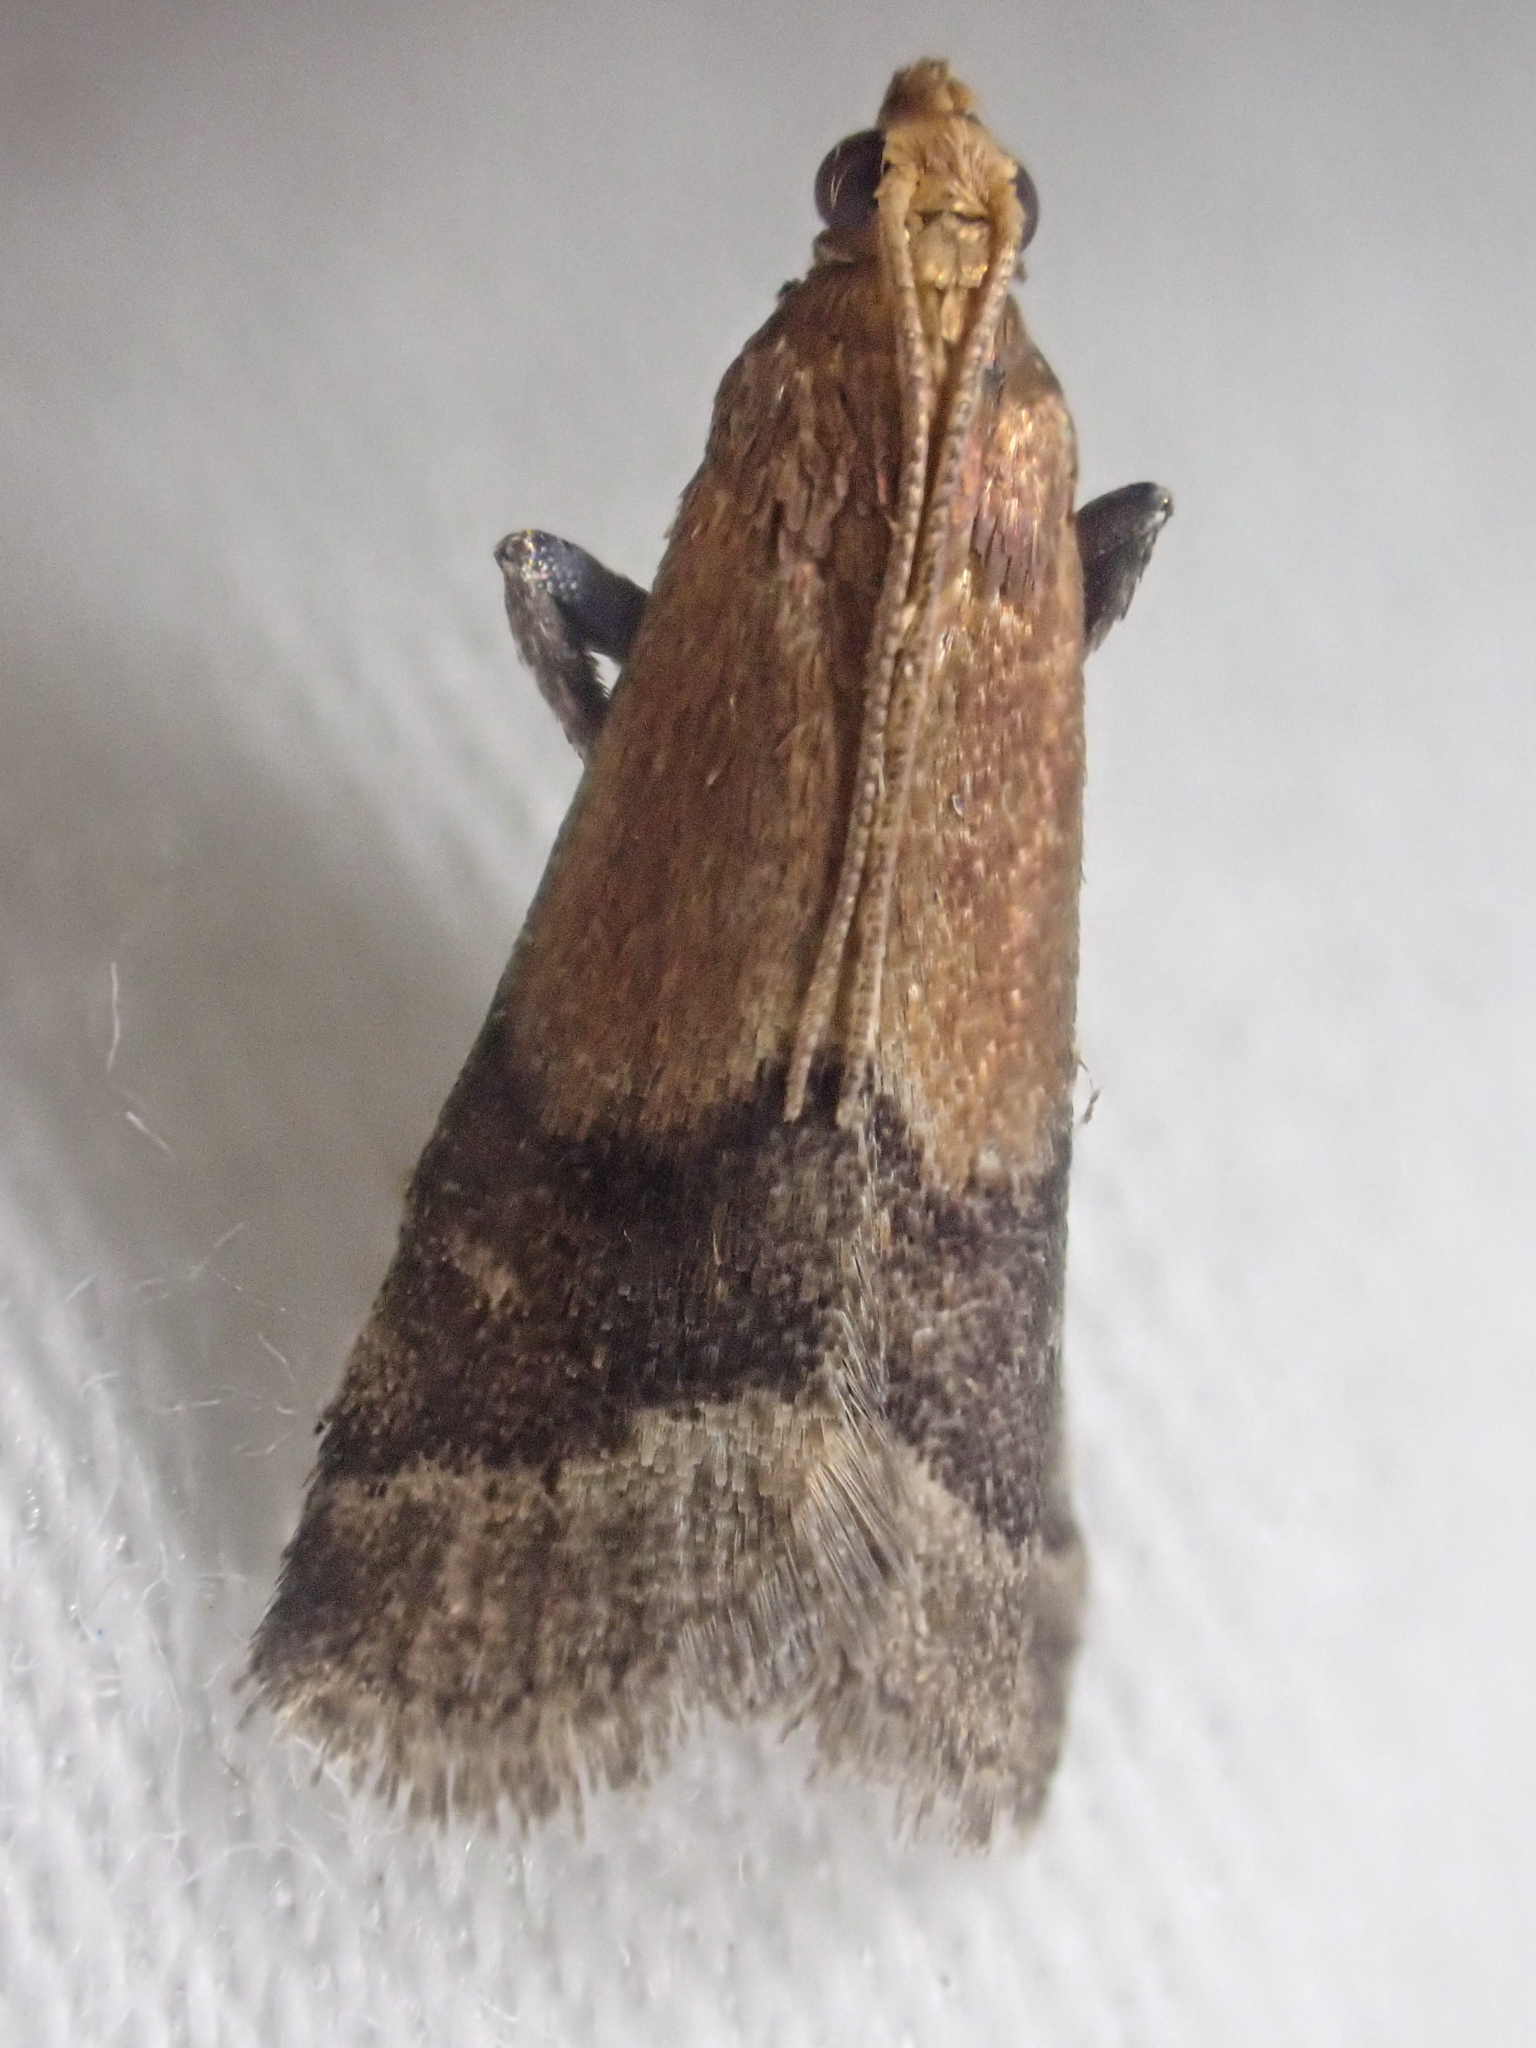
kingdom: Animalia
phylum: Arthropoda
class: Insecta
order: Lepidoptera
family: Pyralidae
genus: Eulogia
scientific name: Eulogia ochrifrontella
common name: Broad-banded eulogia moth
